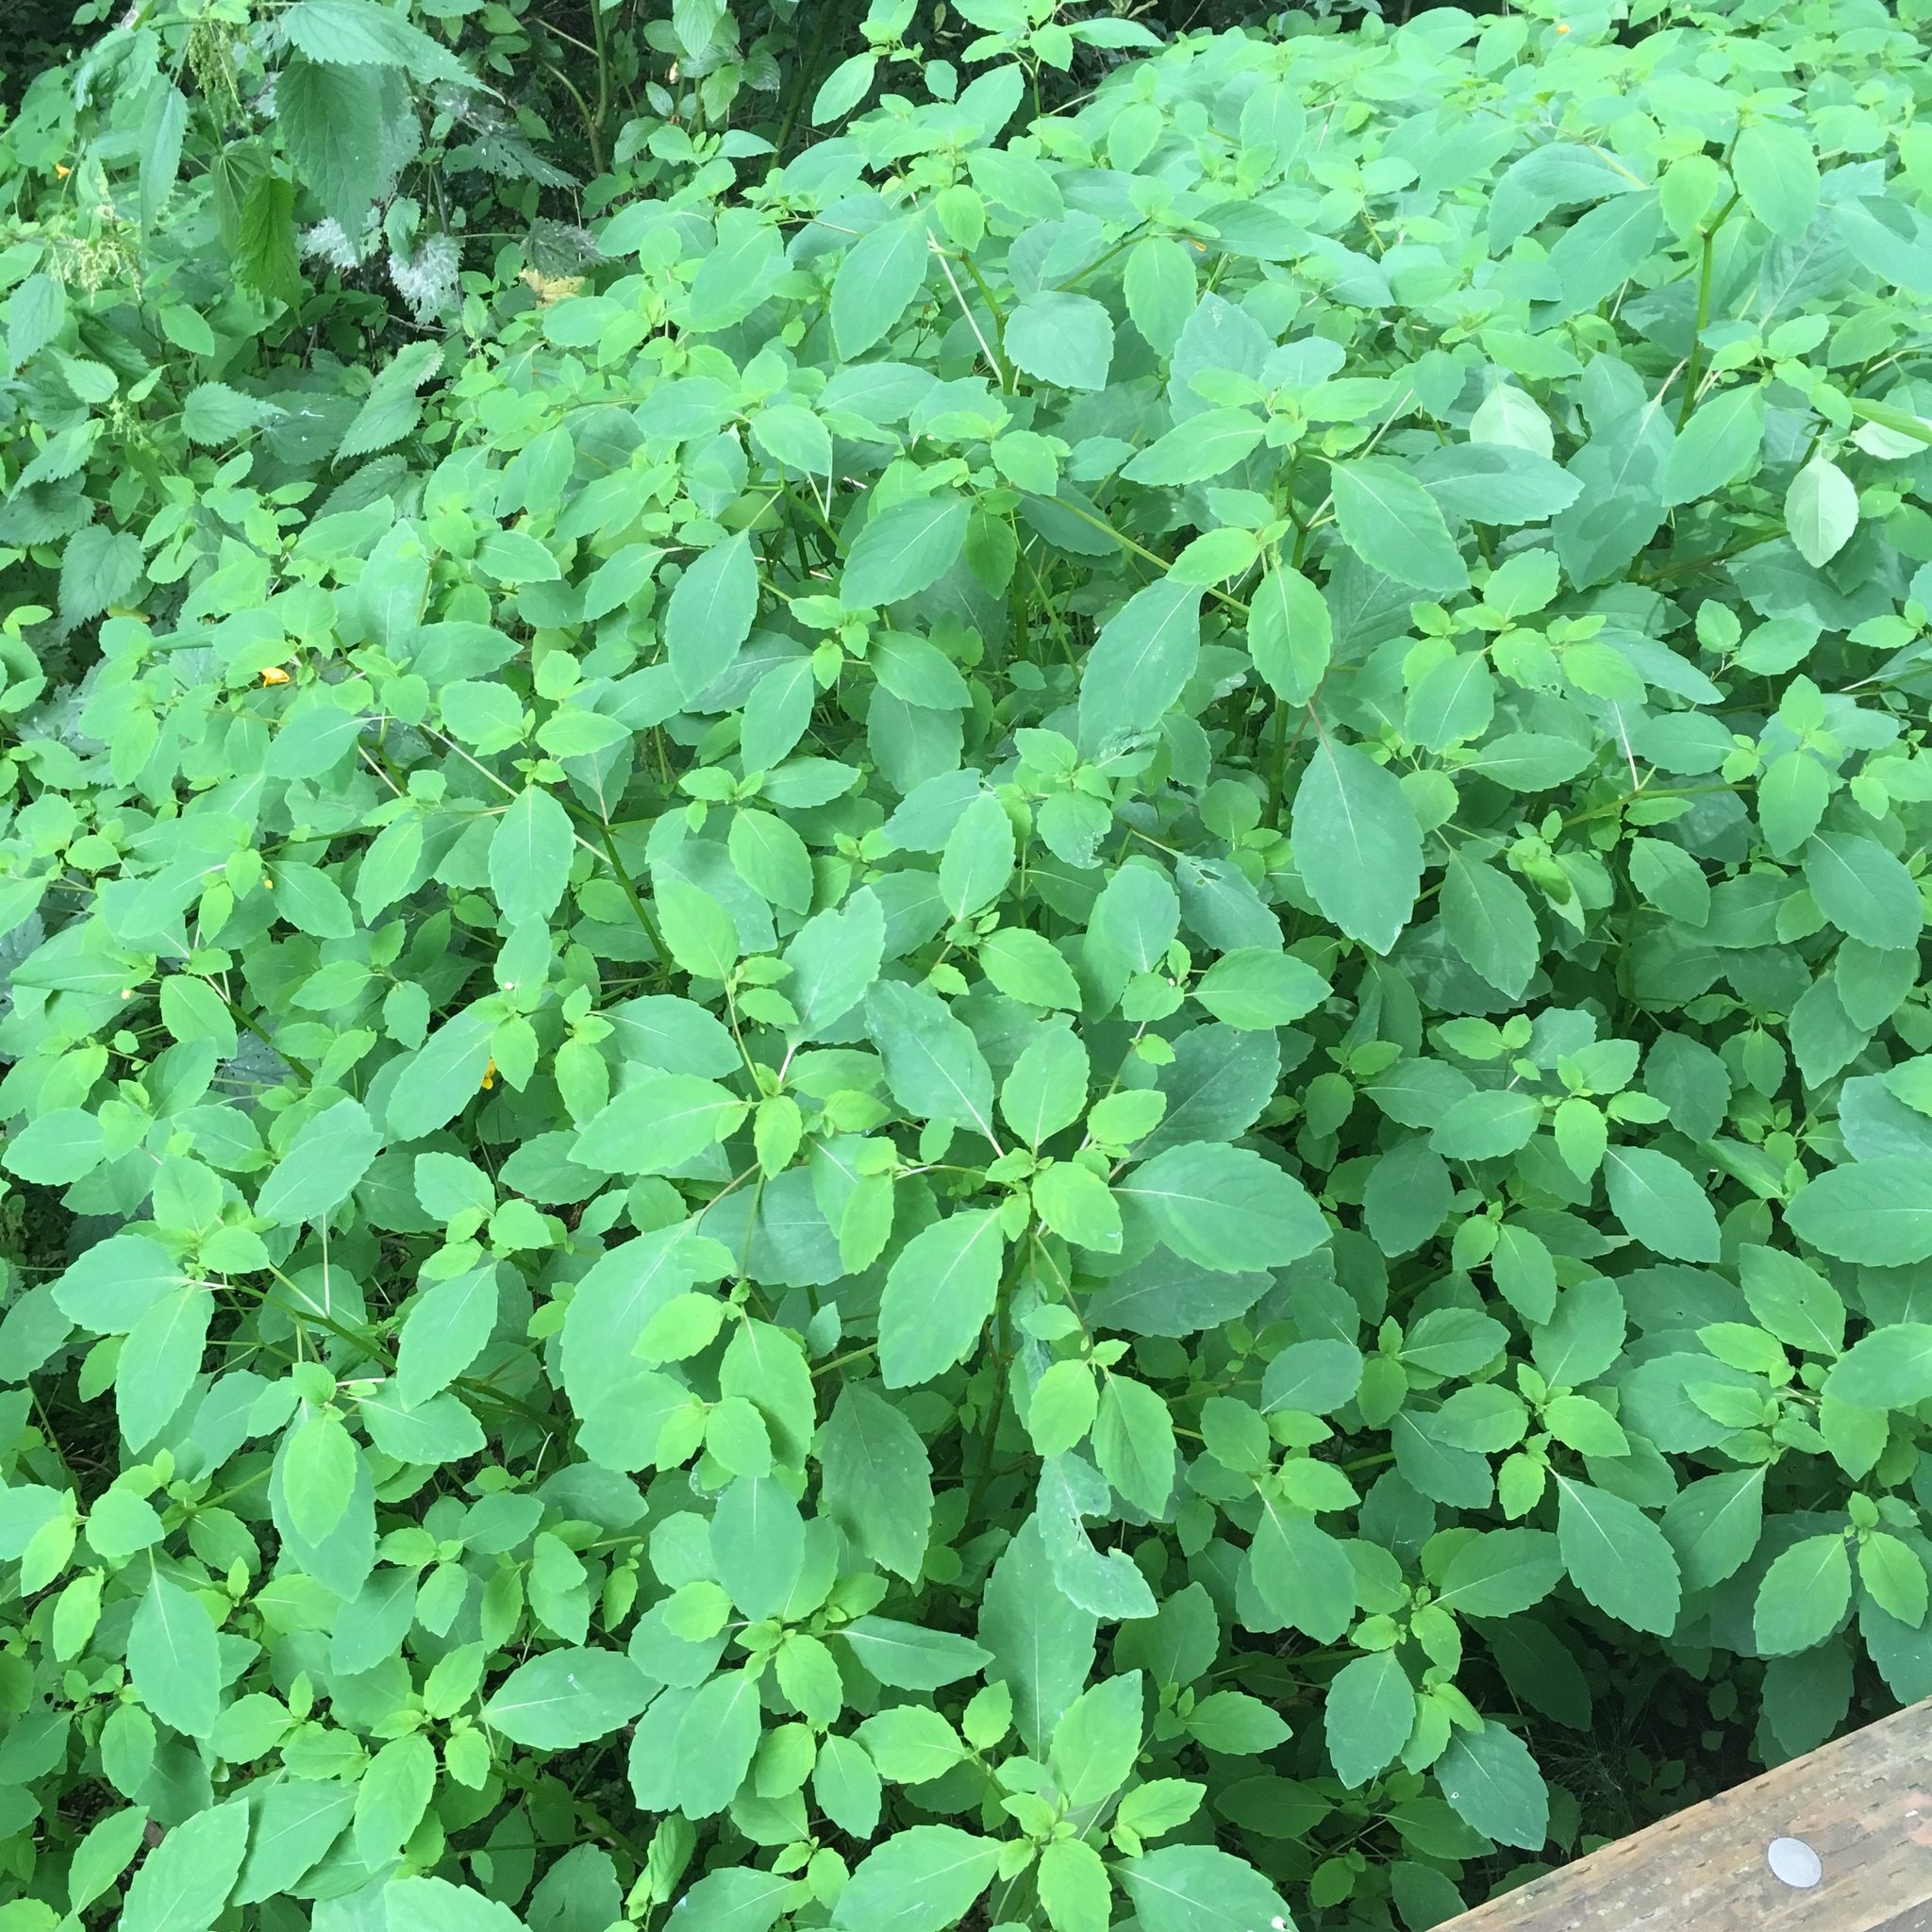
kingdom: Plantae
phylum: Tracheophyta
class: Magnoliopsida
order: Ericales
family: Balsaminaceae
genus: Impatiens
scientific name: Impatiens capensis
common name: Orange balsam
